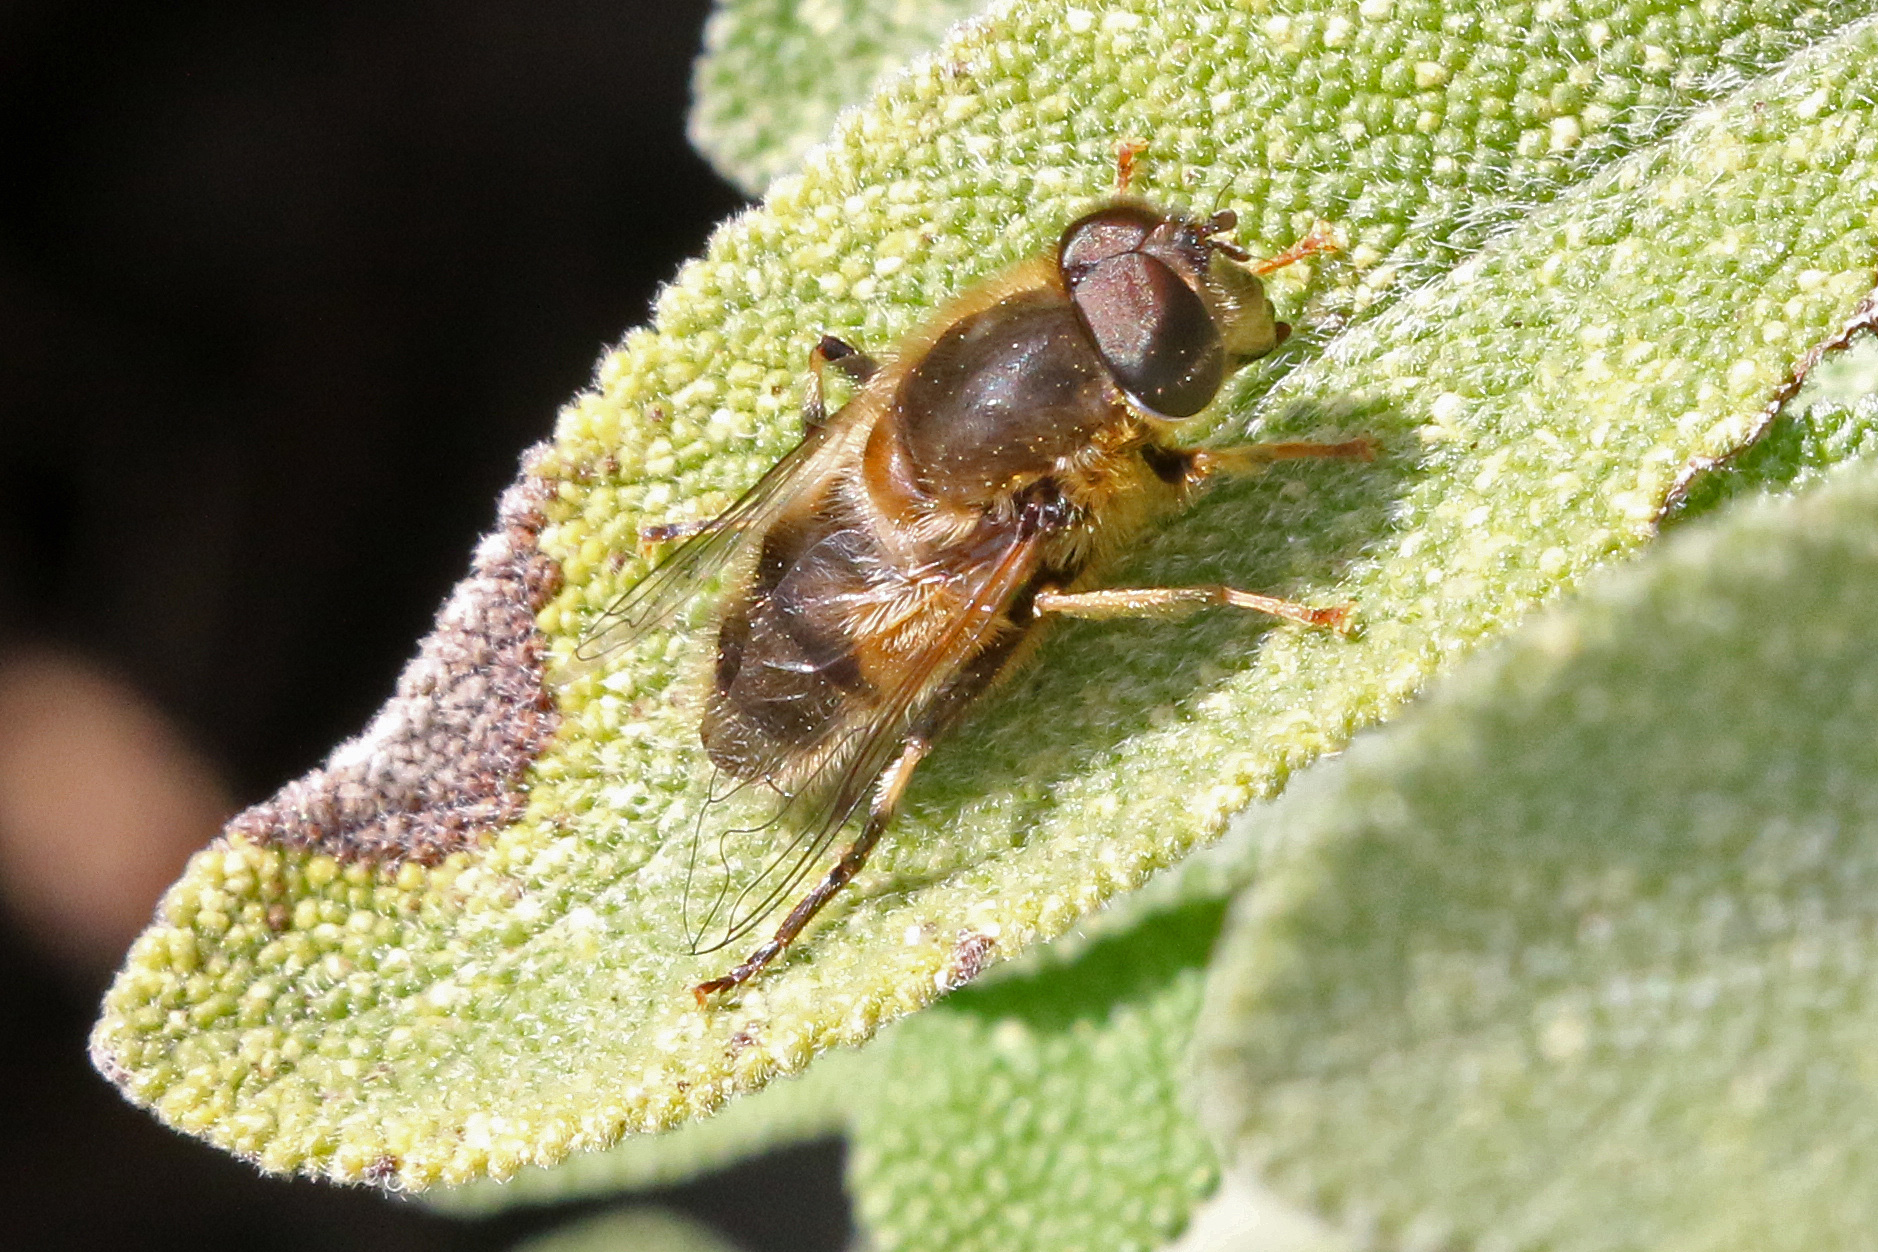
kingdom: Animalia
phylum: Arthropoda
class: Insecta
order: Diptera
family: Syrphidae
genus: Eristalis
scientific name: Eristalis pertinax
